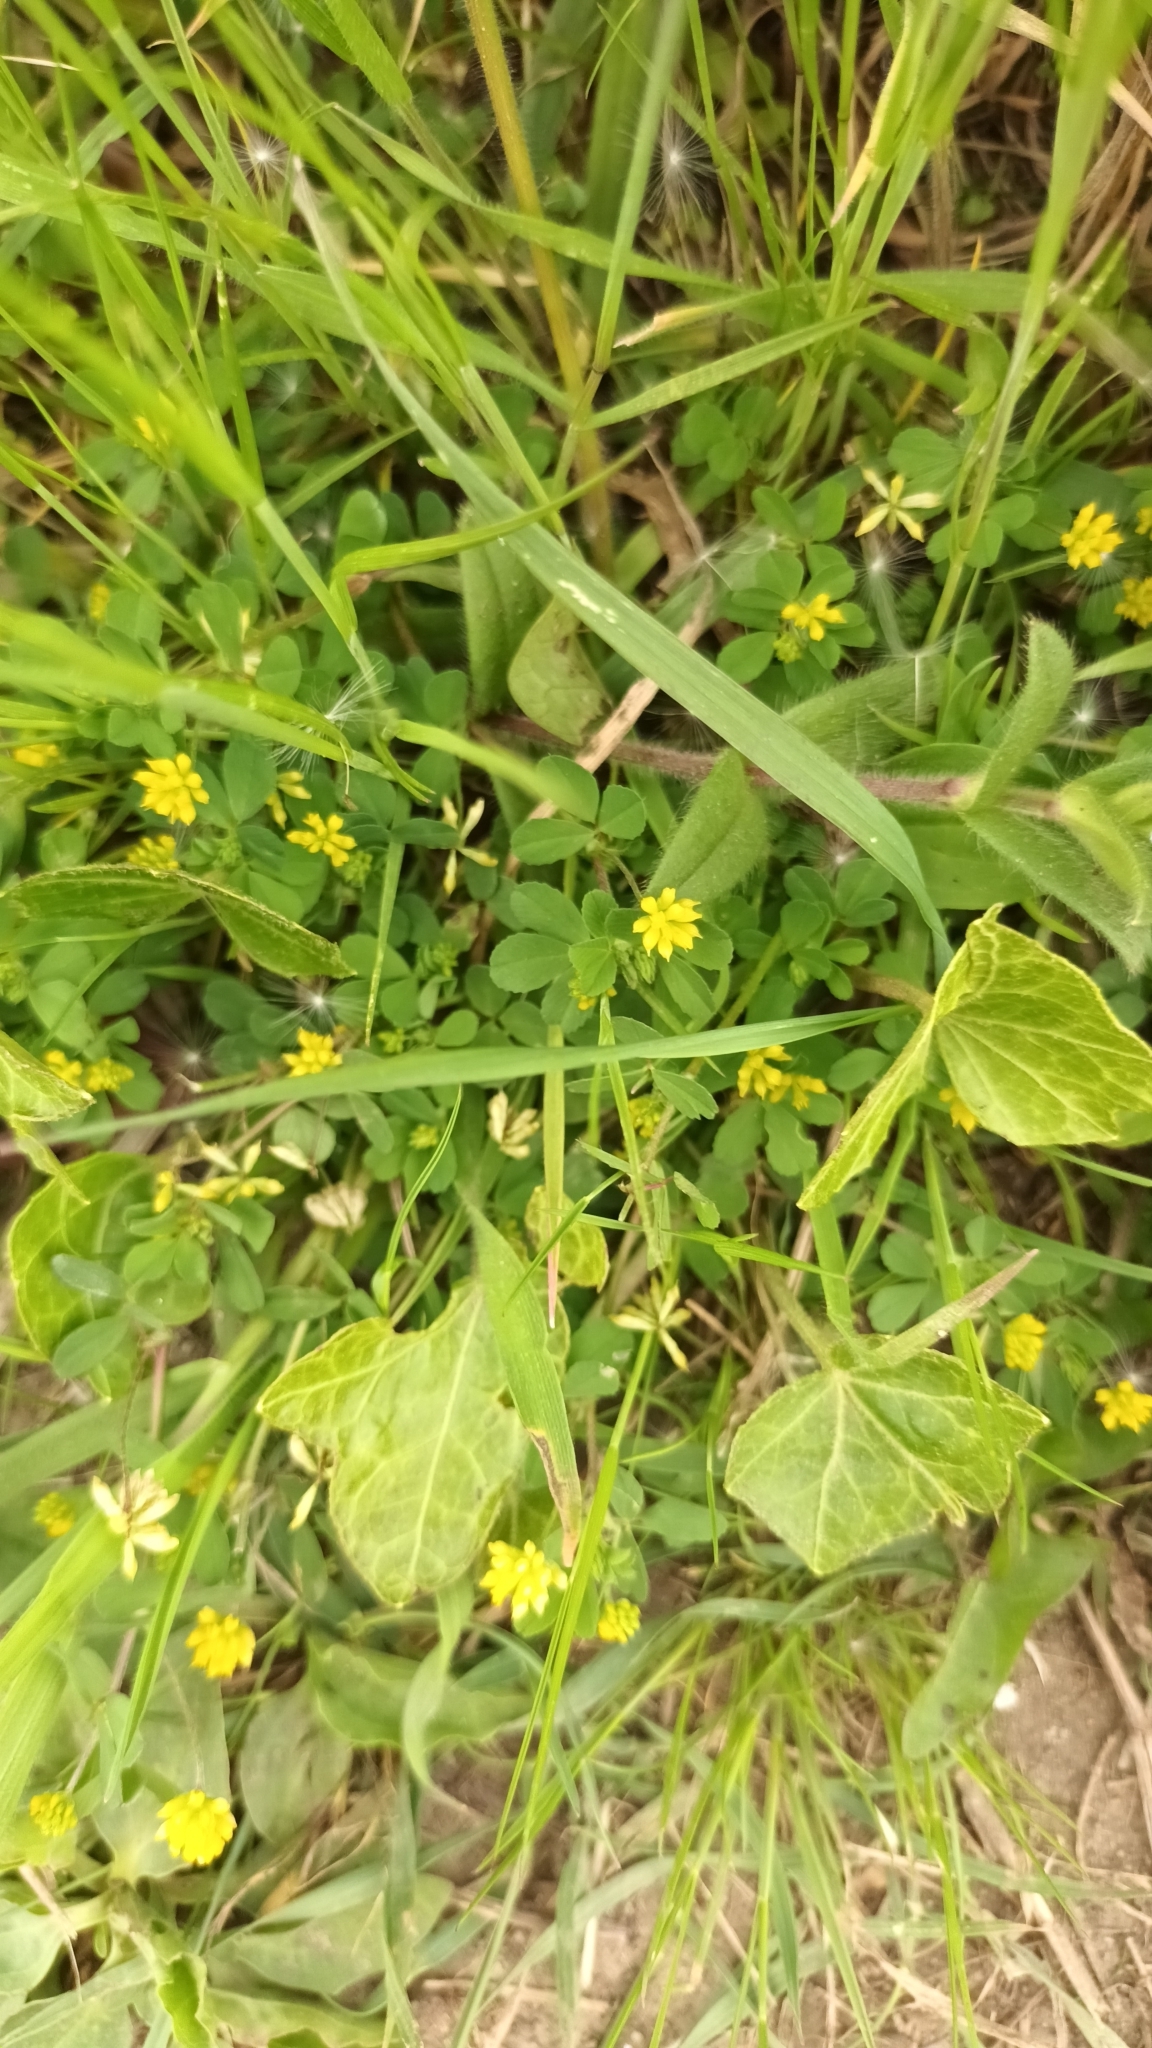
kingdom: Plantae
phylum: Tracheophyta
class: Magnoliopsida
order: Fabales
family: Fabaceae
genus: Trifolium
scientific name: Trifolium dubium
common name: Suckling clover
